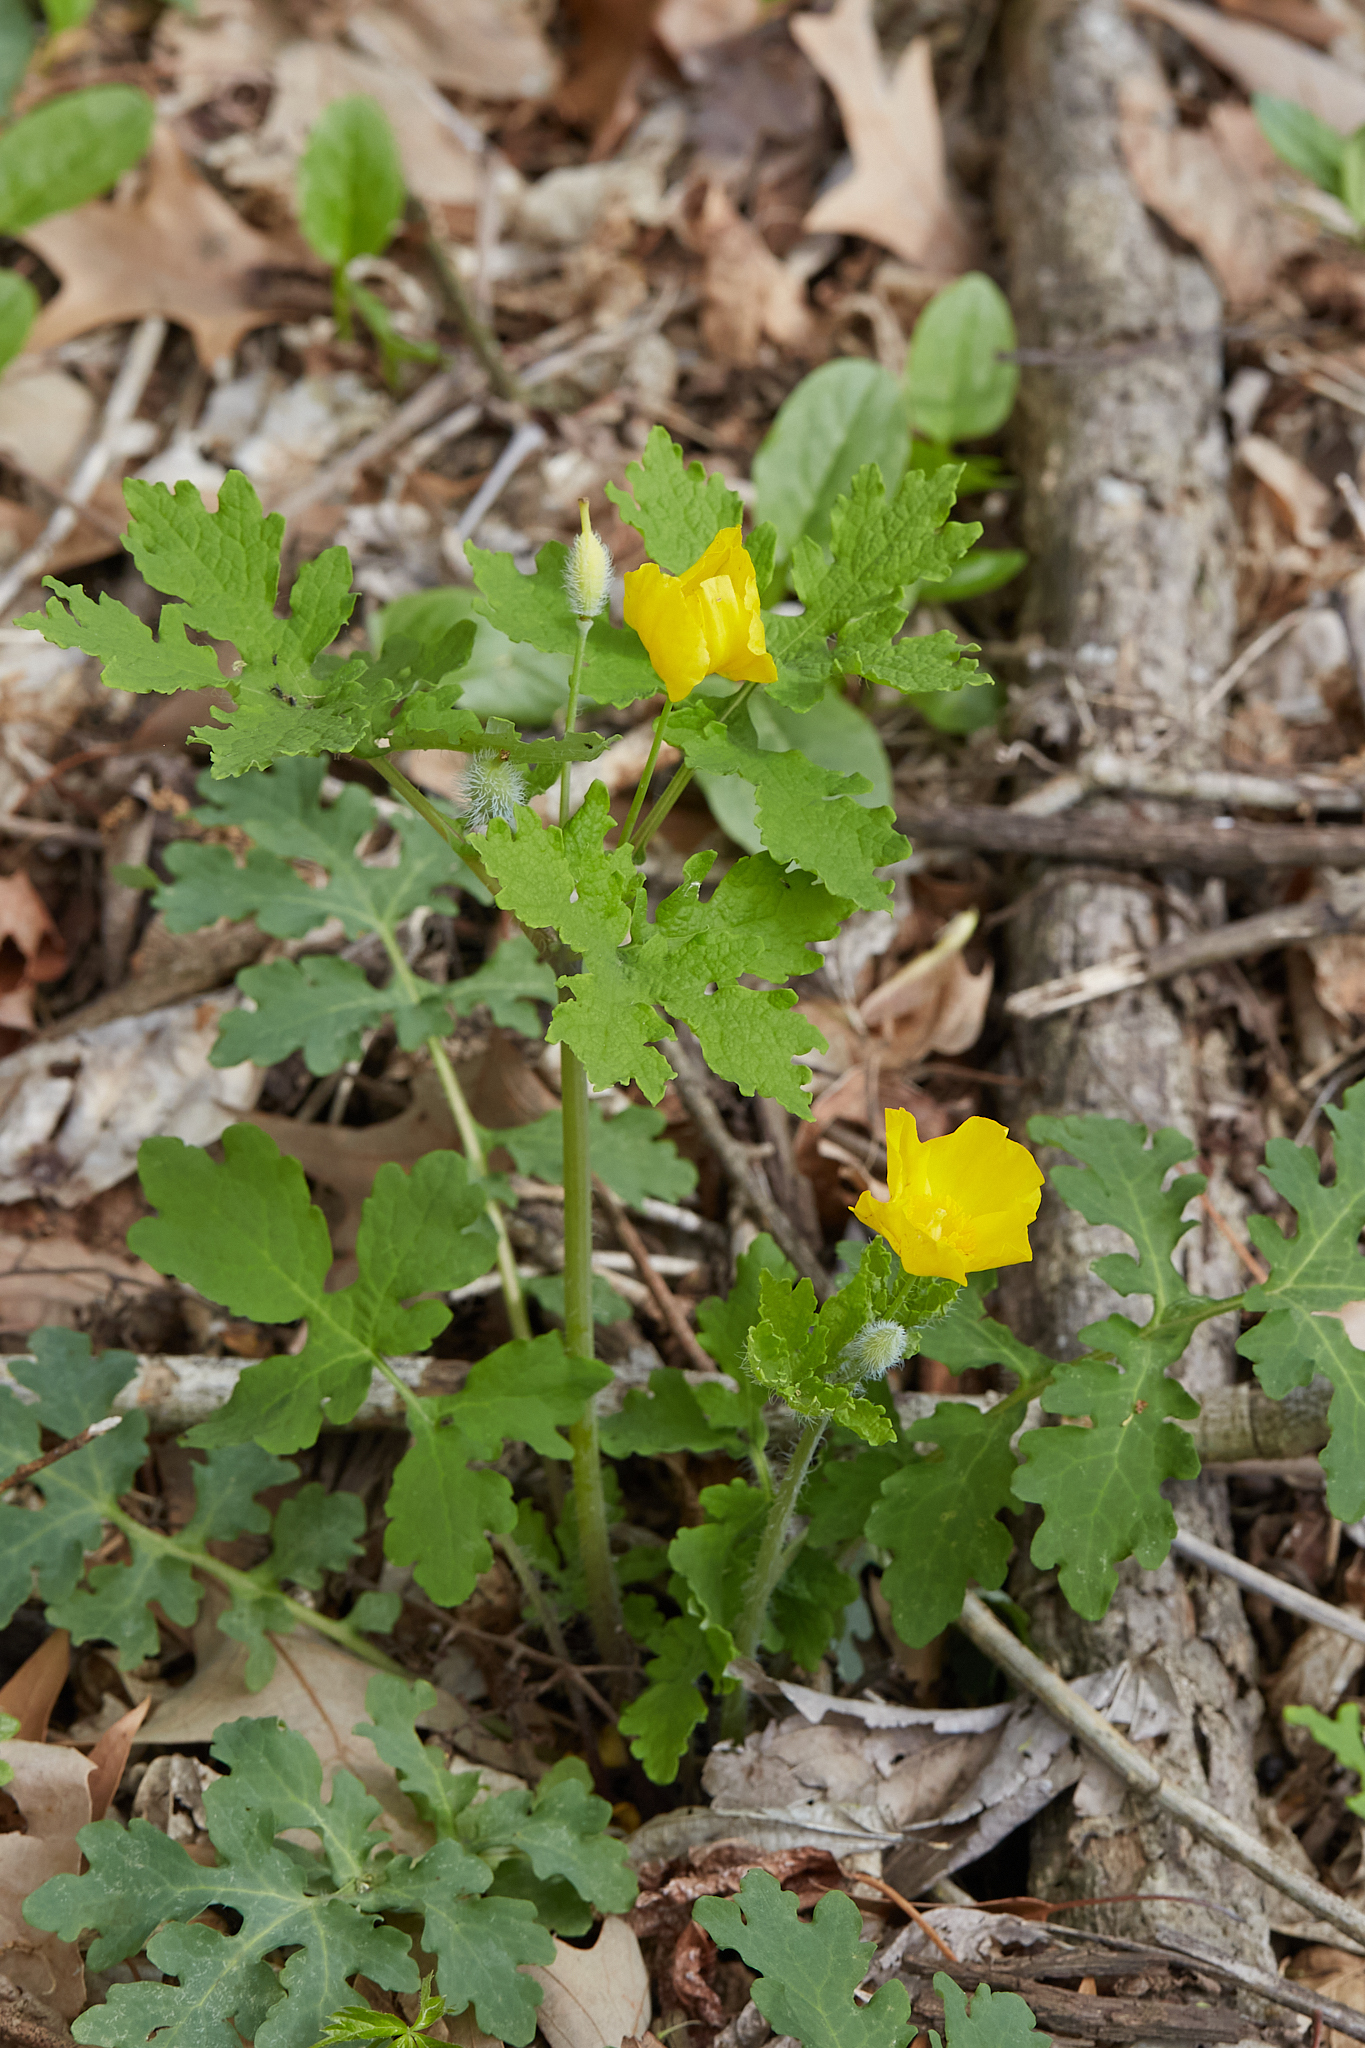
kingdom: Plantae
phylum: Tracheophyta
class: Magnoliopsida
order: Ranunculales
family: Papaveraceae
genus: Stylophorum
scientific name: Stylophorum diphyllum
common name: Celandine poppy
